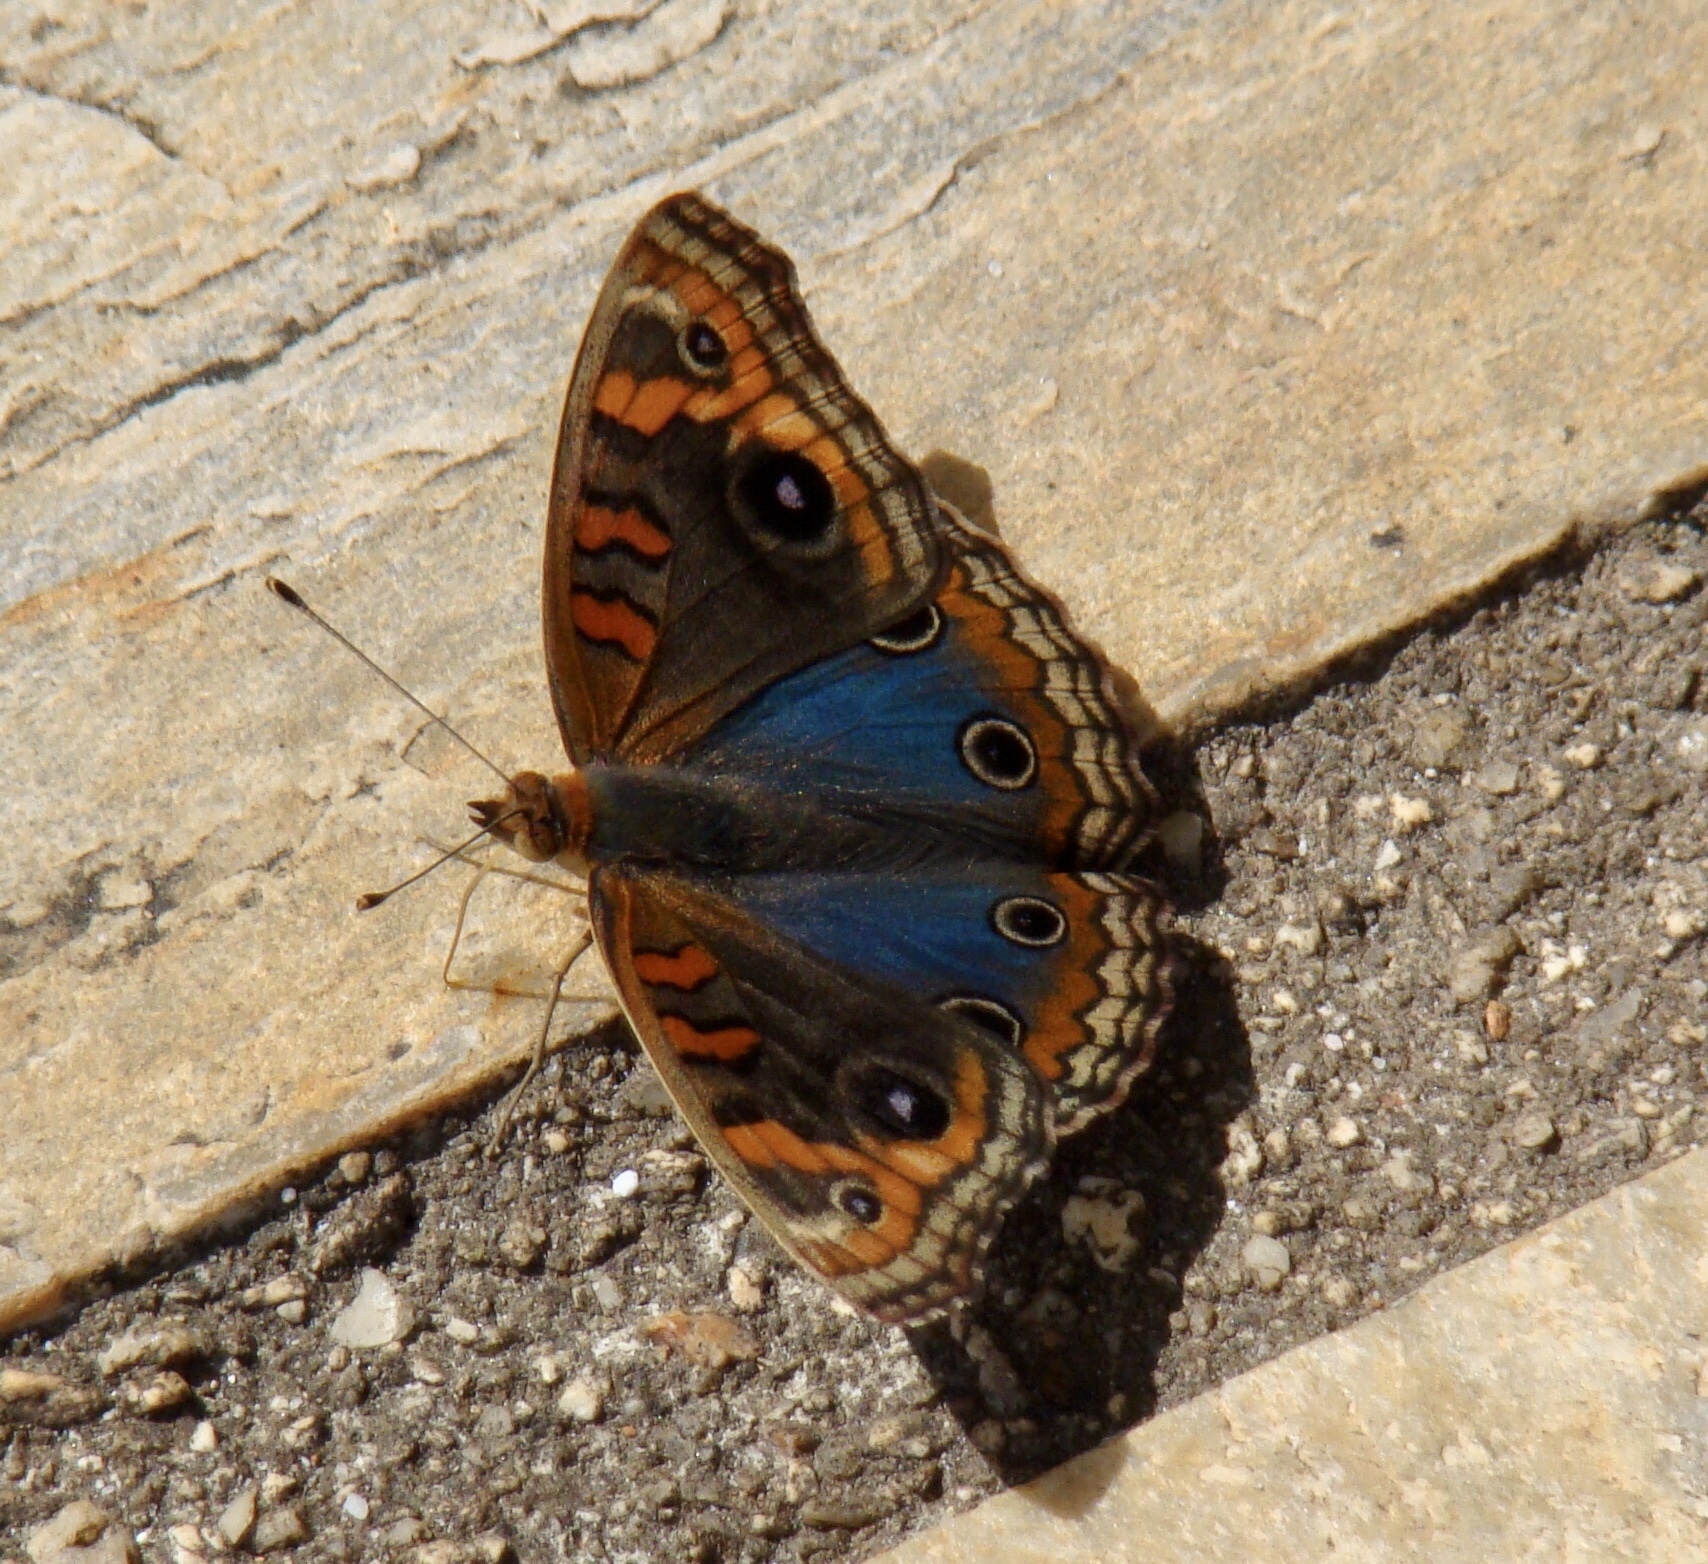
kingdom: Animalia
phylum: Arthropoda
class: Insecta
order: Lepidoptera
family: Nymphalidae
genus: Junonia
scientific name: Junonia evarete
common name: Black mangrove buckeye
